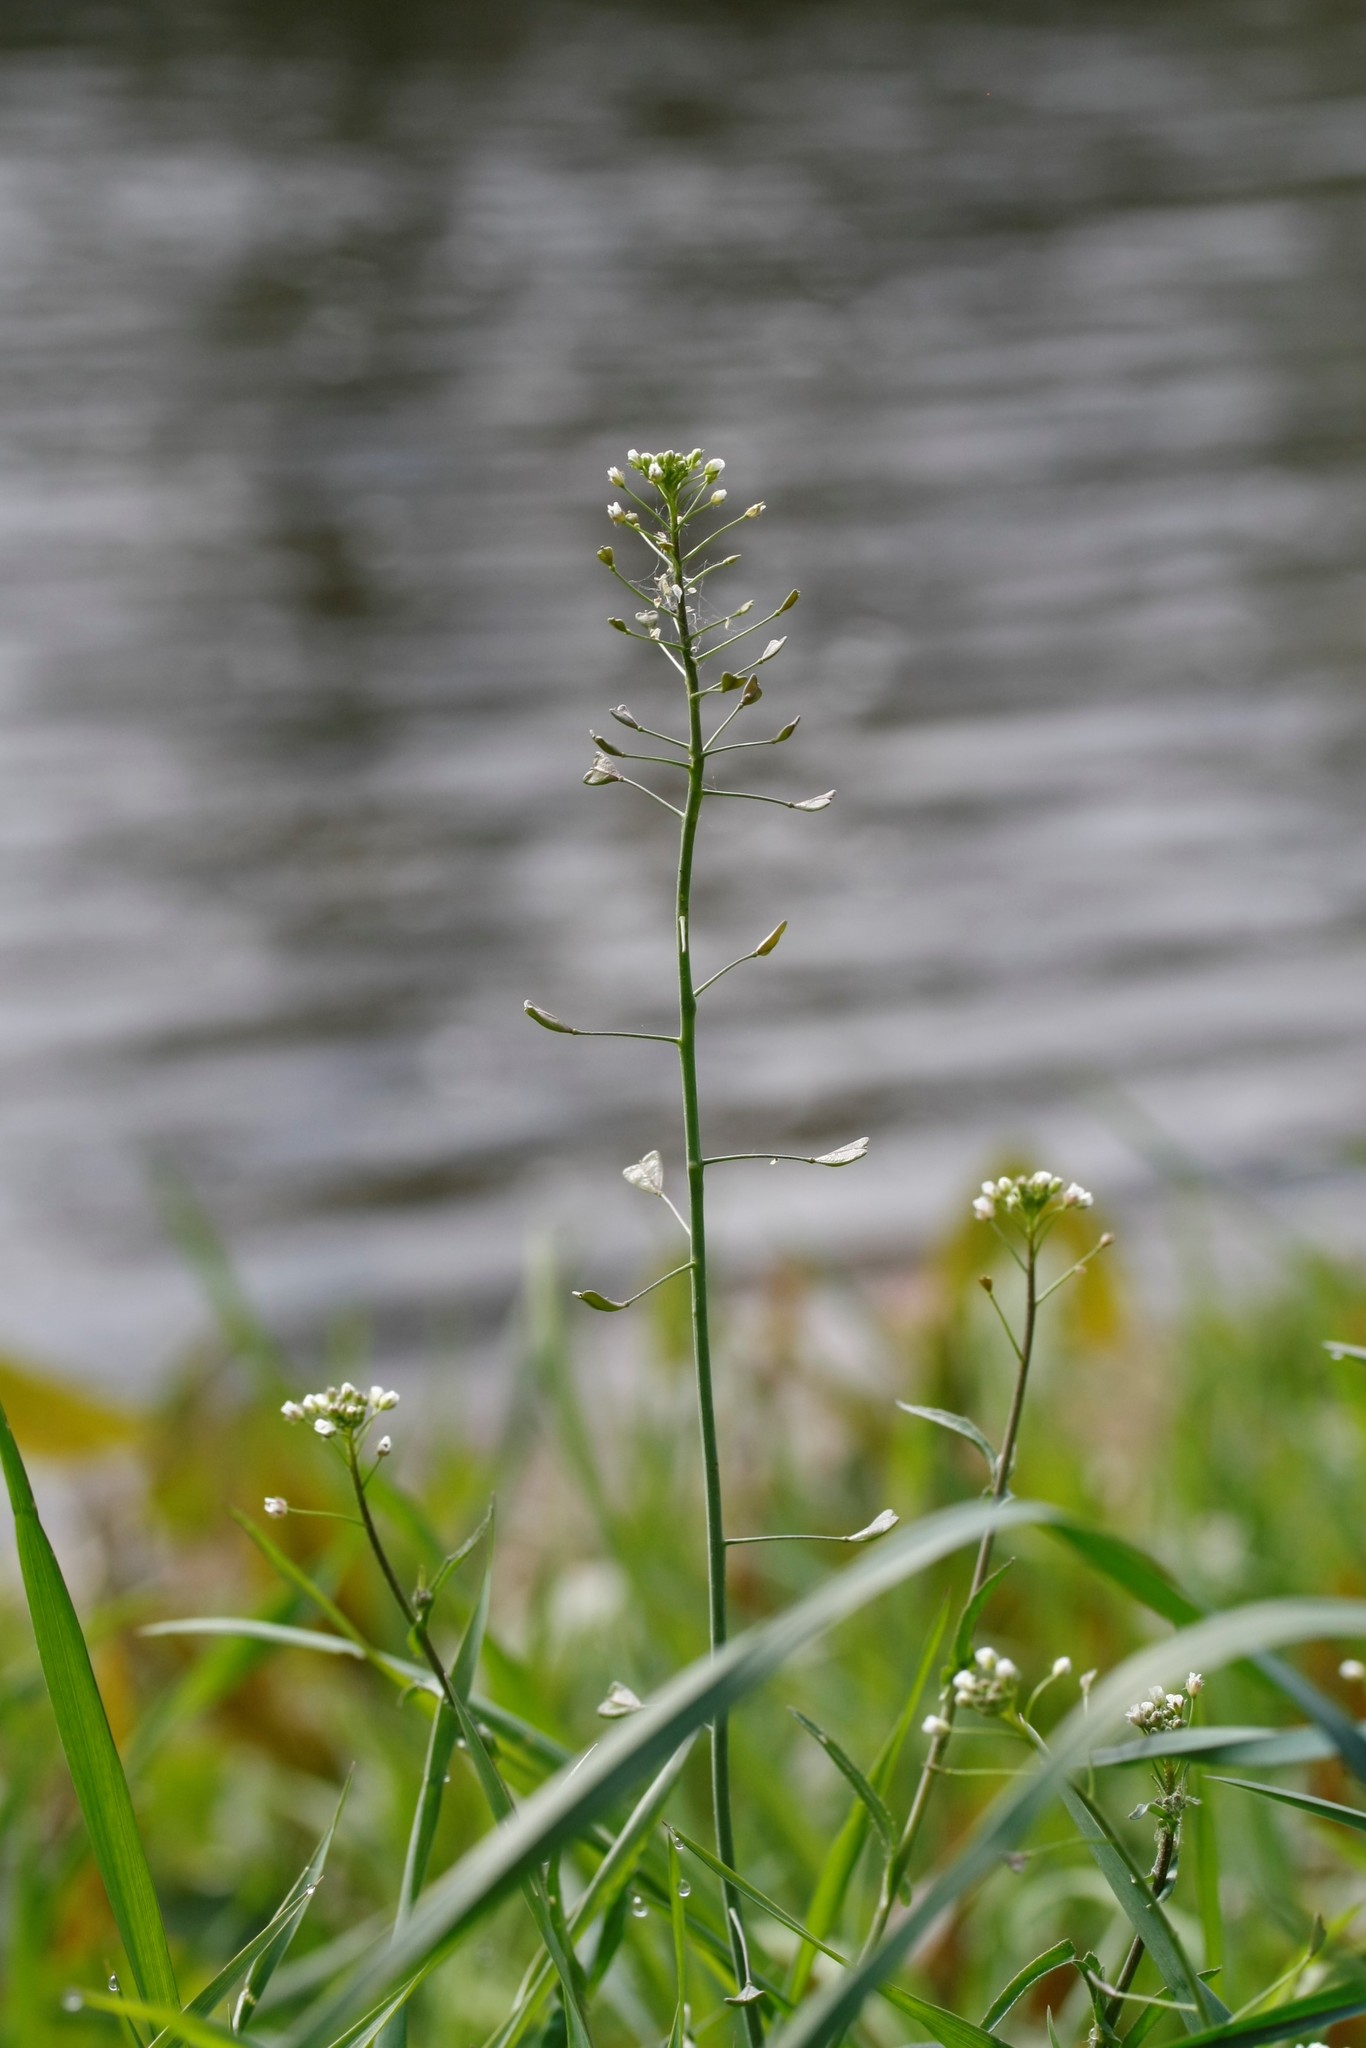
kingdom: Plantae
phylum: Tracheophyta
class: Magnoliopsida
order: Brassicales
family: Brassicaceae
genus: Capsella
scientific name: Capsella bursa-pastoris
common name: Shepherd's purse
